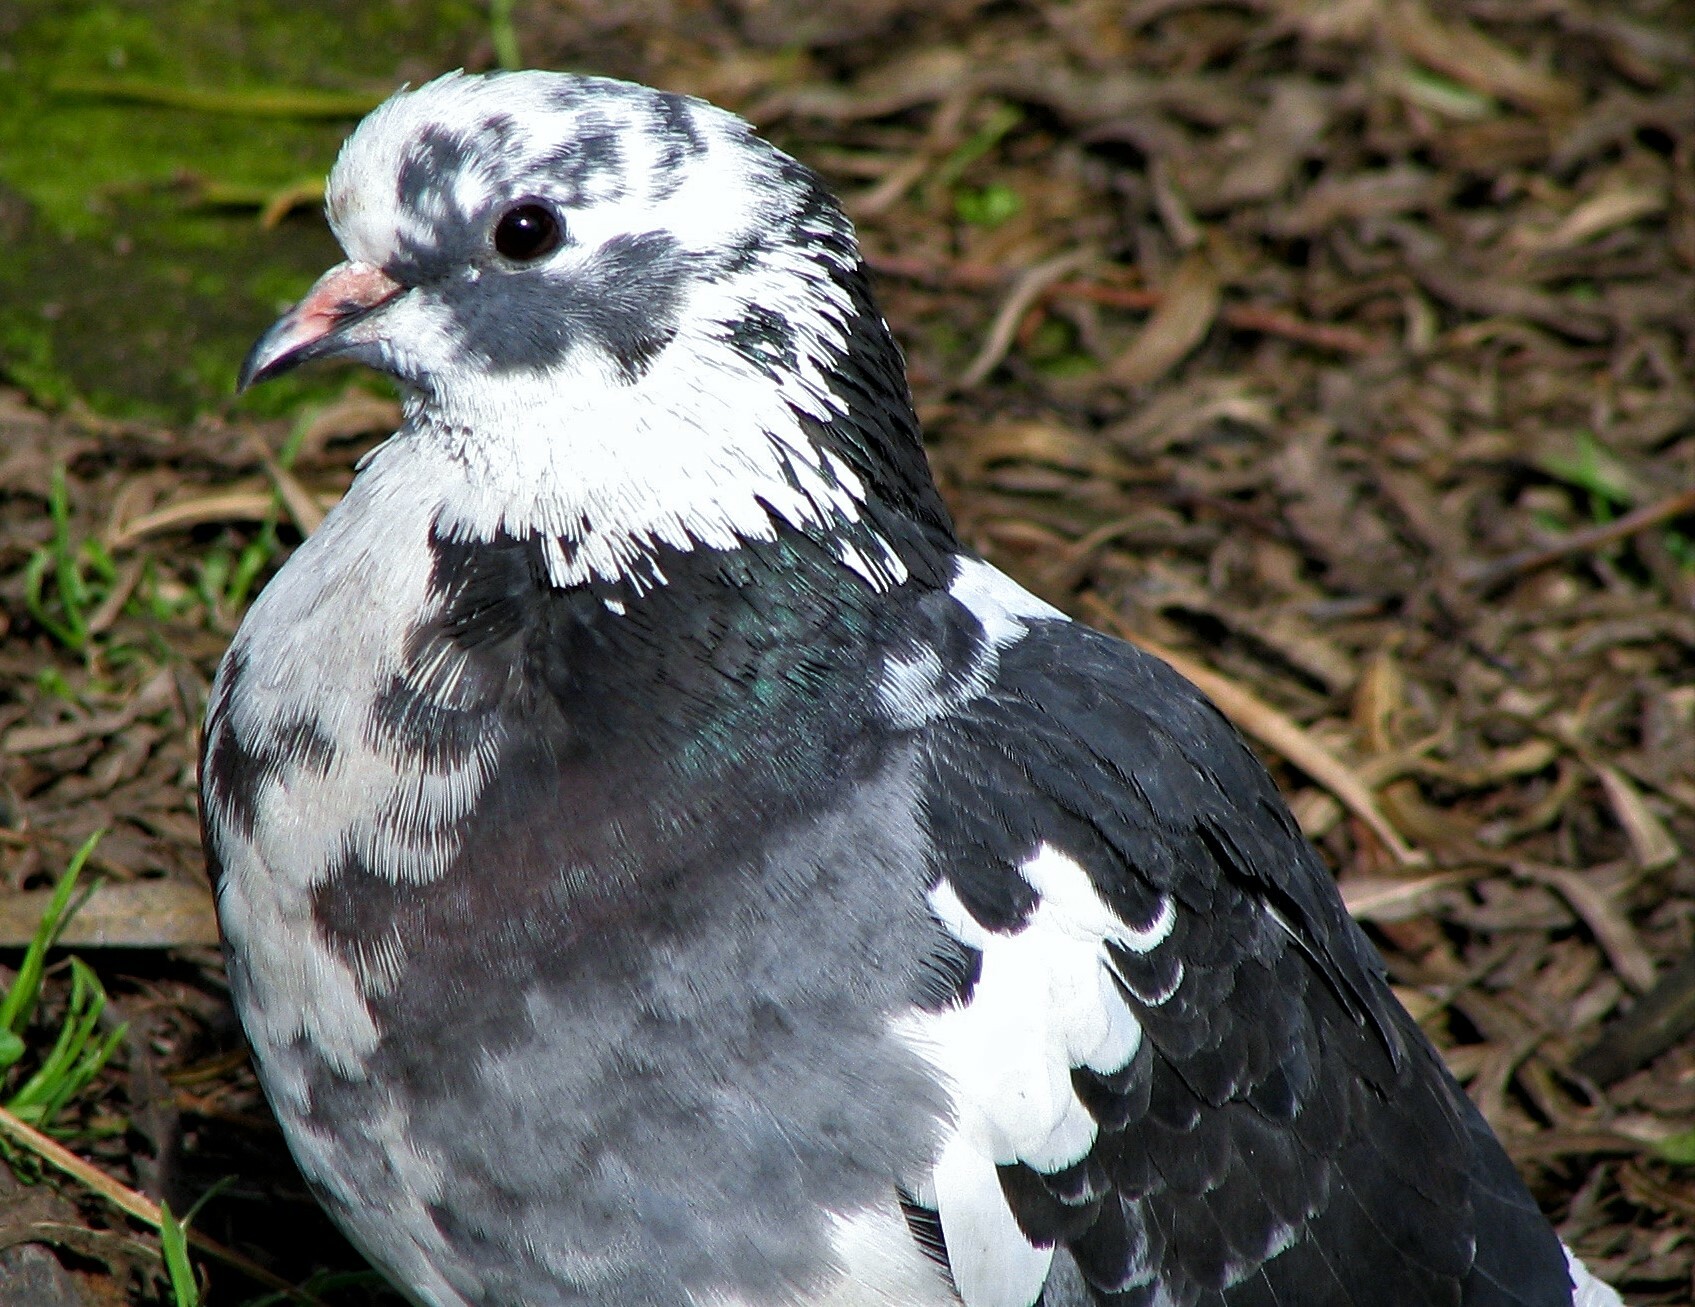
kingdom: Animalia
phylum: Chordata
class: Aves
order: Columbiformes
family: Columbidae
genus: Columba
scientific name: Columba livia
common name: Rock pigeon
